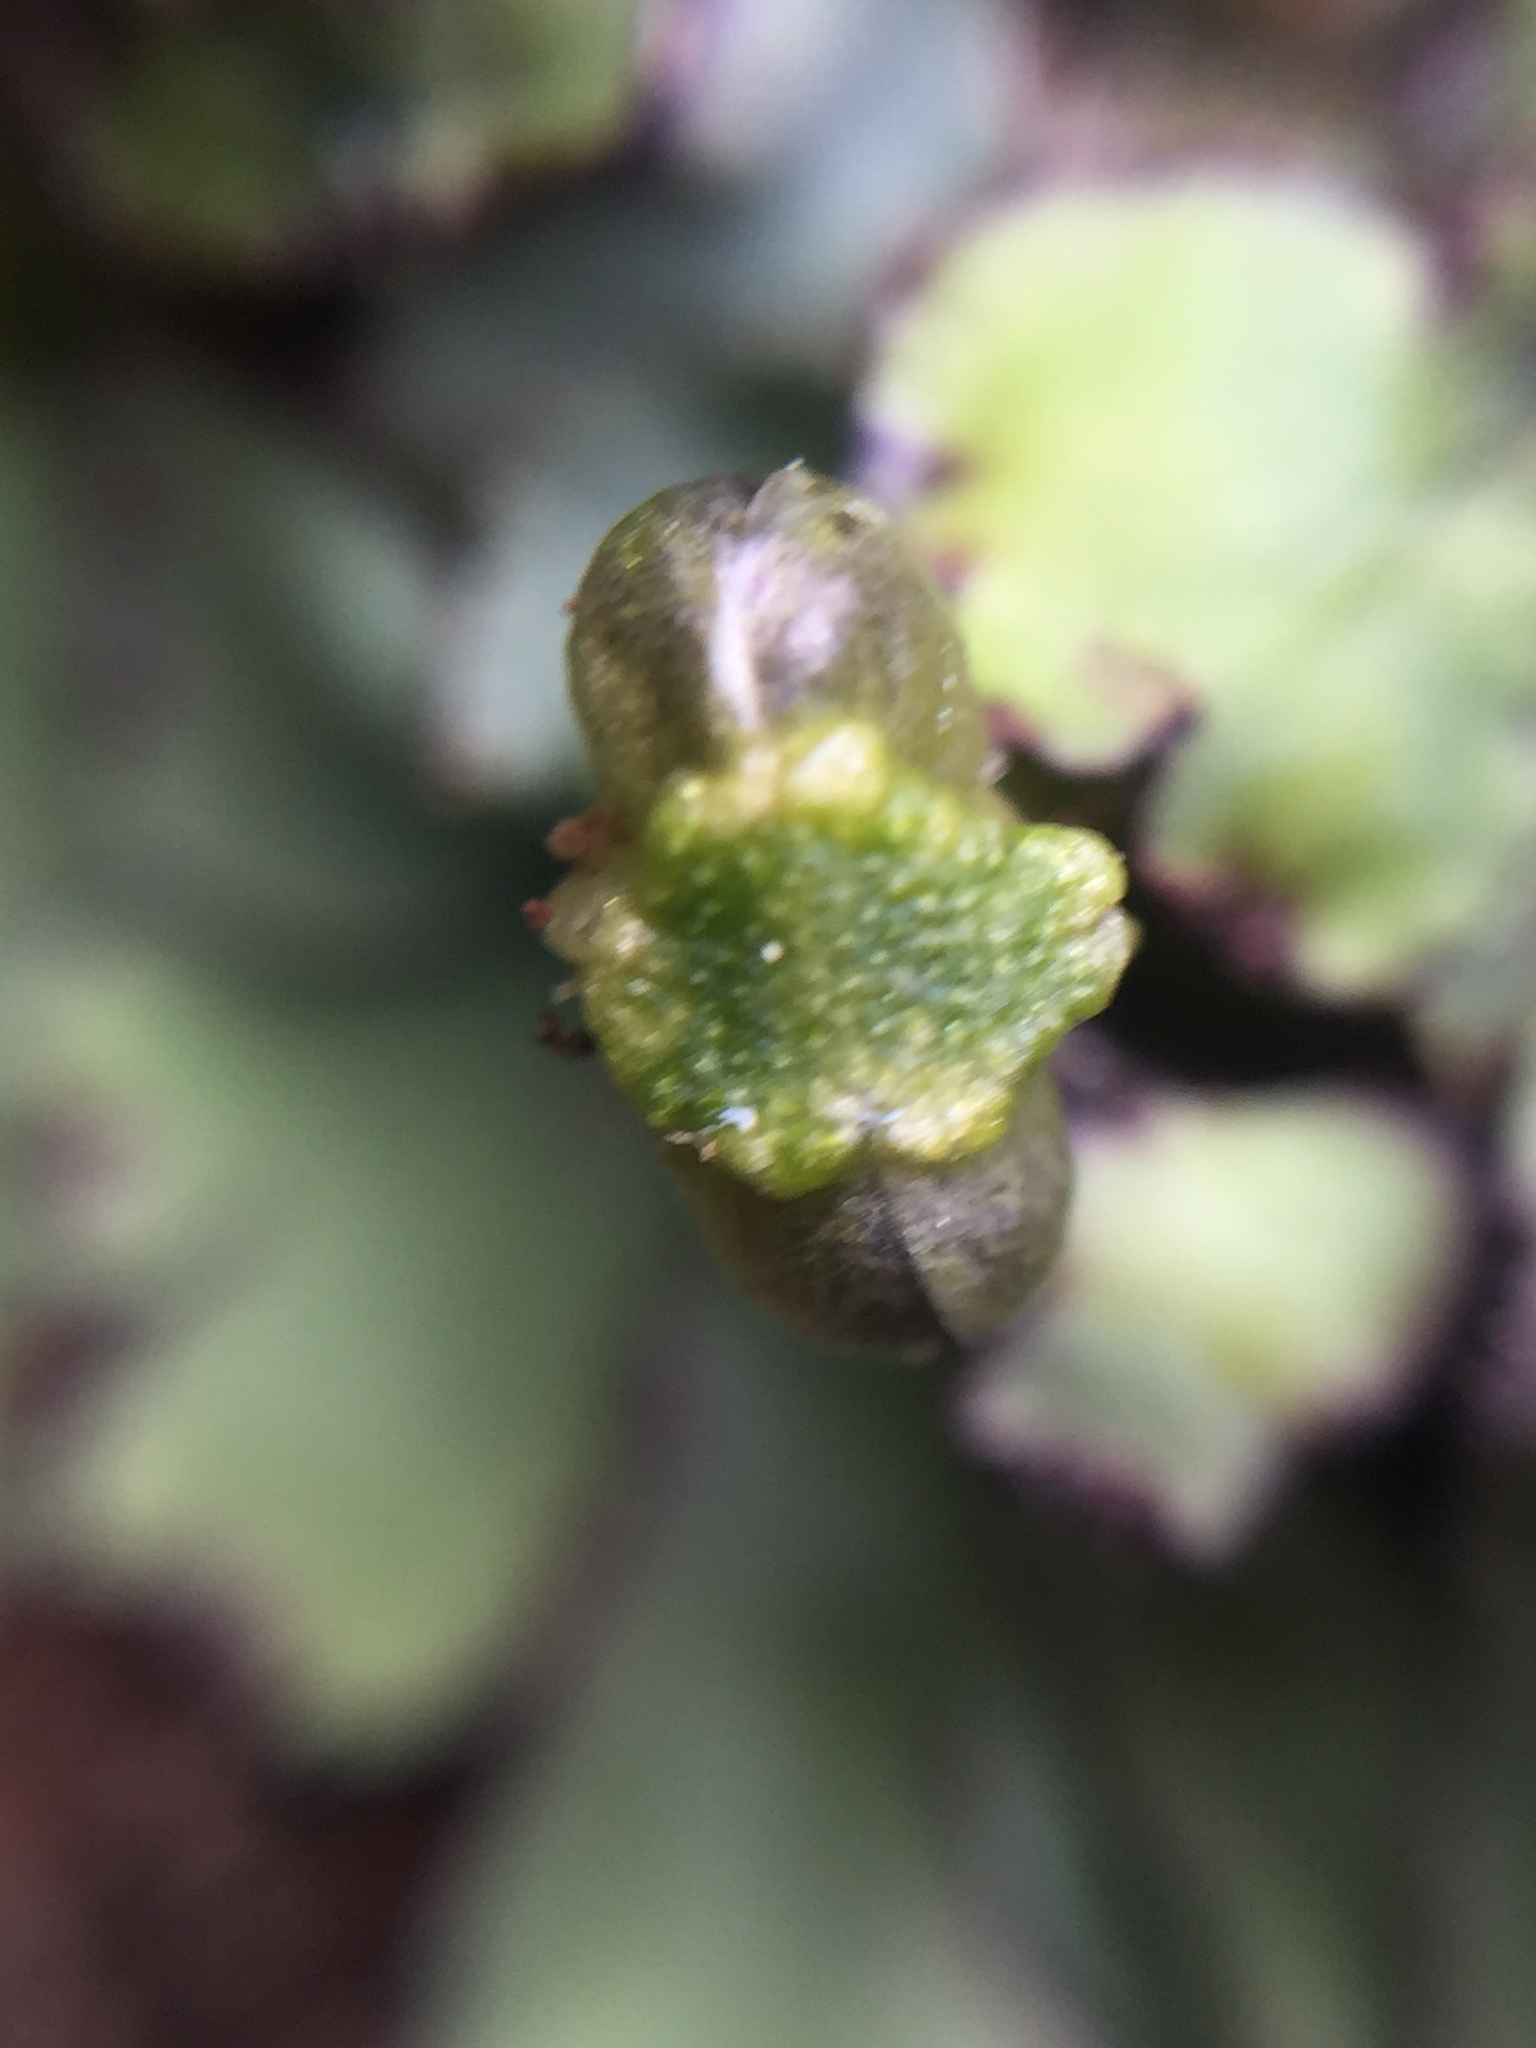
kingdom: Plantae
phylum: Marchantiophyta
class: Marchantiopsida
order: Marchantiales
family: Aytoniaceae
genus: Plagiochasma
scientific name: Plagiochasma rupestre
